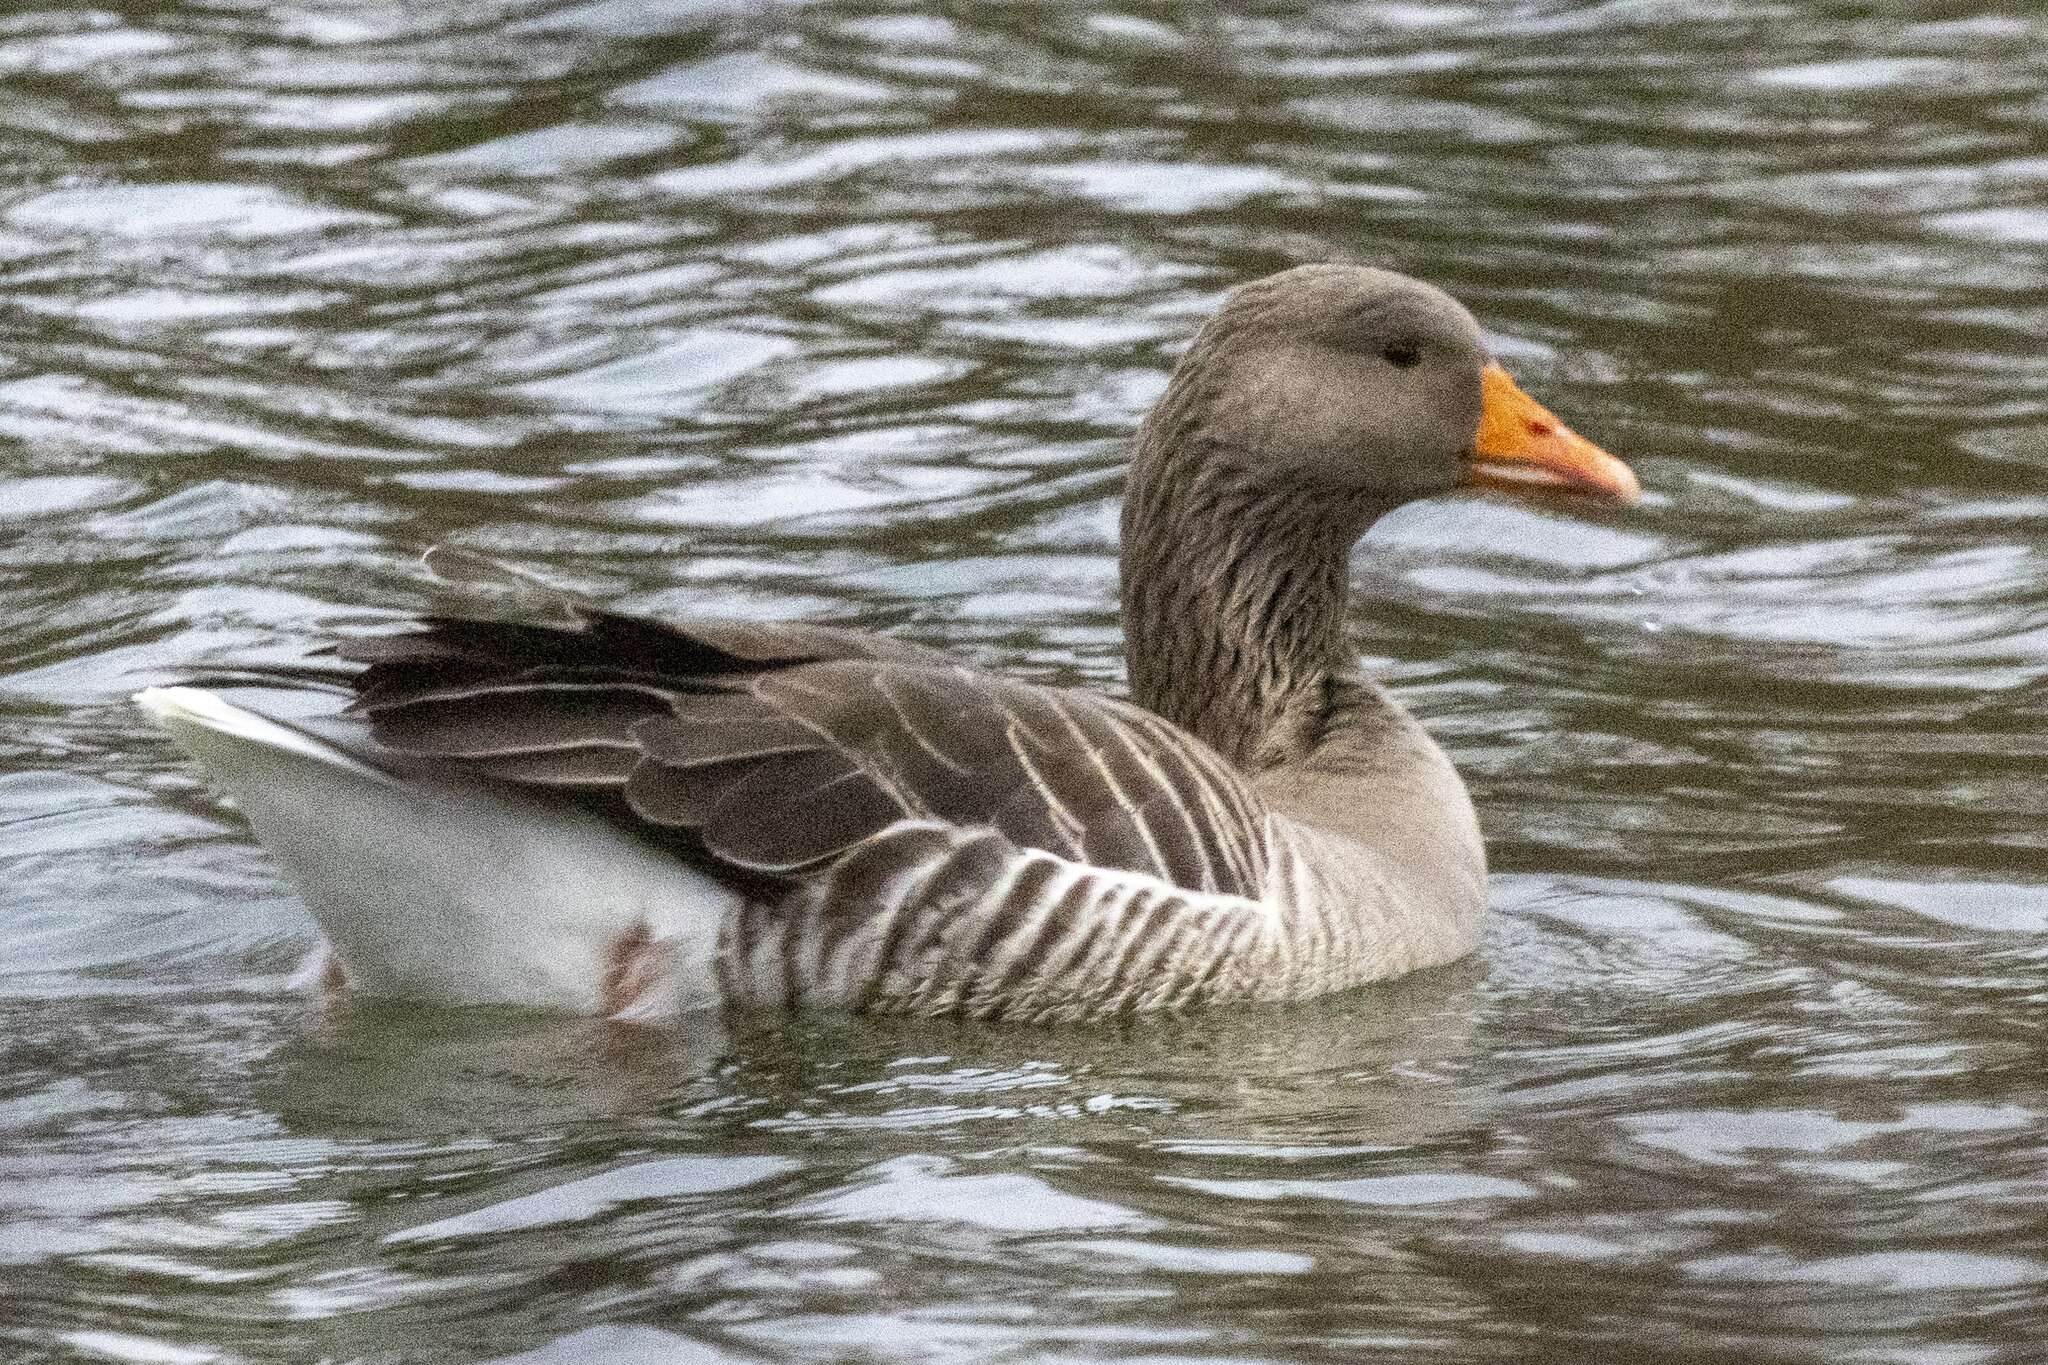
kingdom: Animalia
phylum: Chordata
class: Aves
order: Anseriformes
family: Anatidae
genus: Anser
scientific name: Anser anser
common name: Greylag goose
